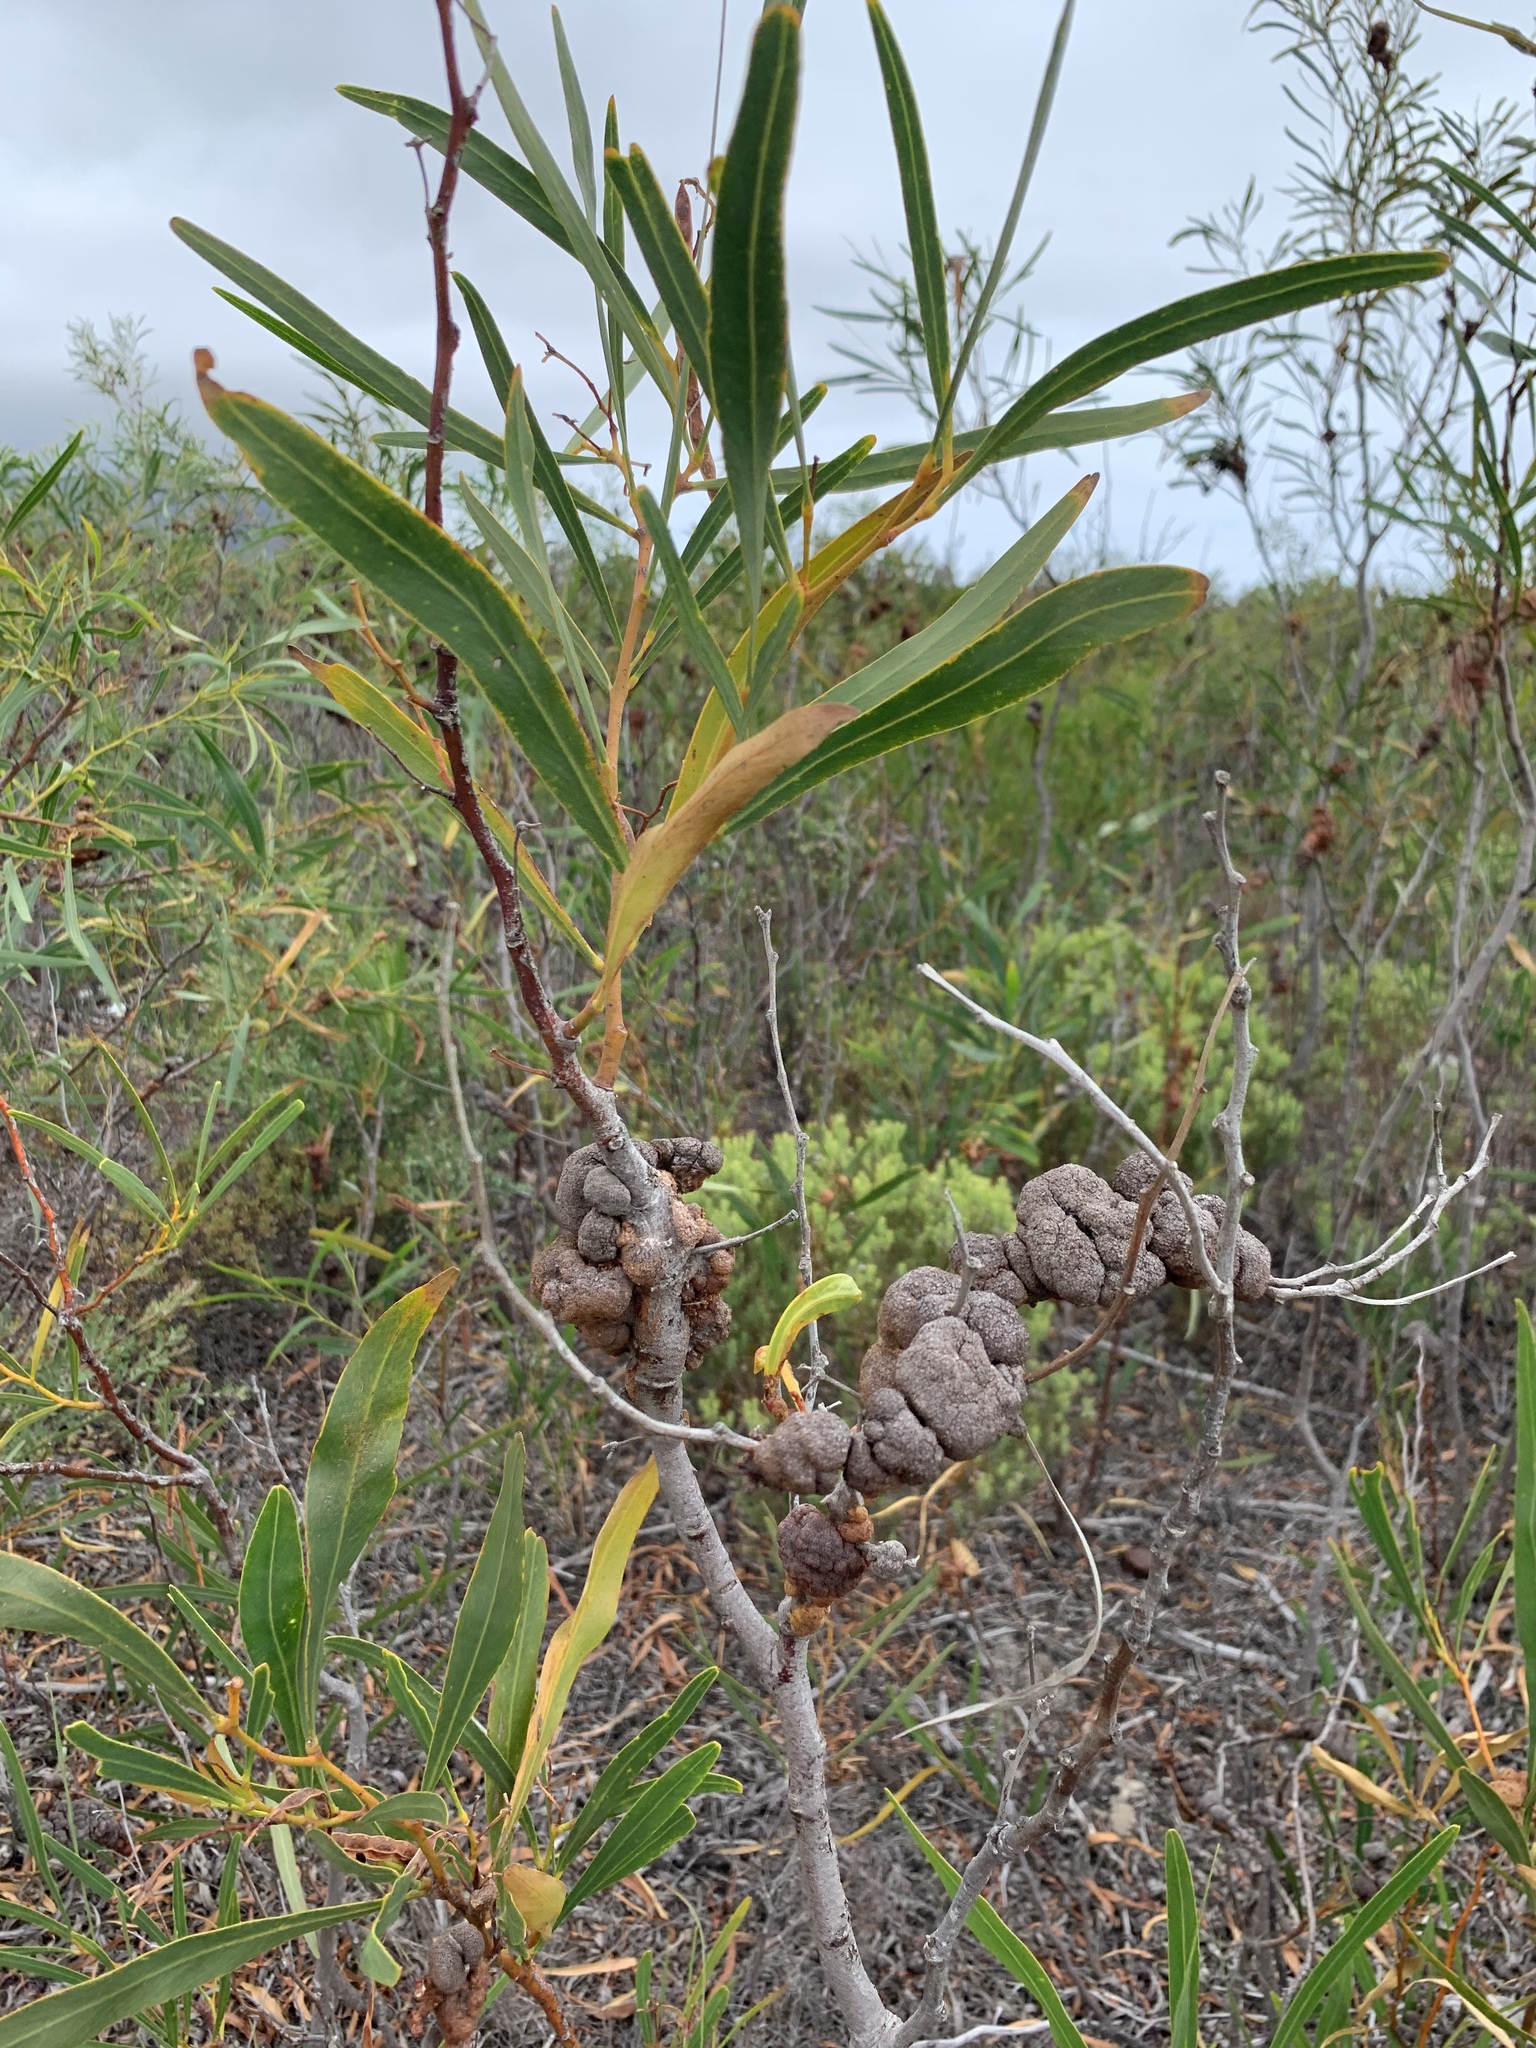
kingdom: Plantae
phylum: Tracheophyta
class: Magnoliopsida
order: Fabales
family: Fabaceae
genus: Acacia
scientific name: Acacia saligna
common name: Orange wattle
